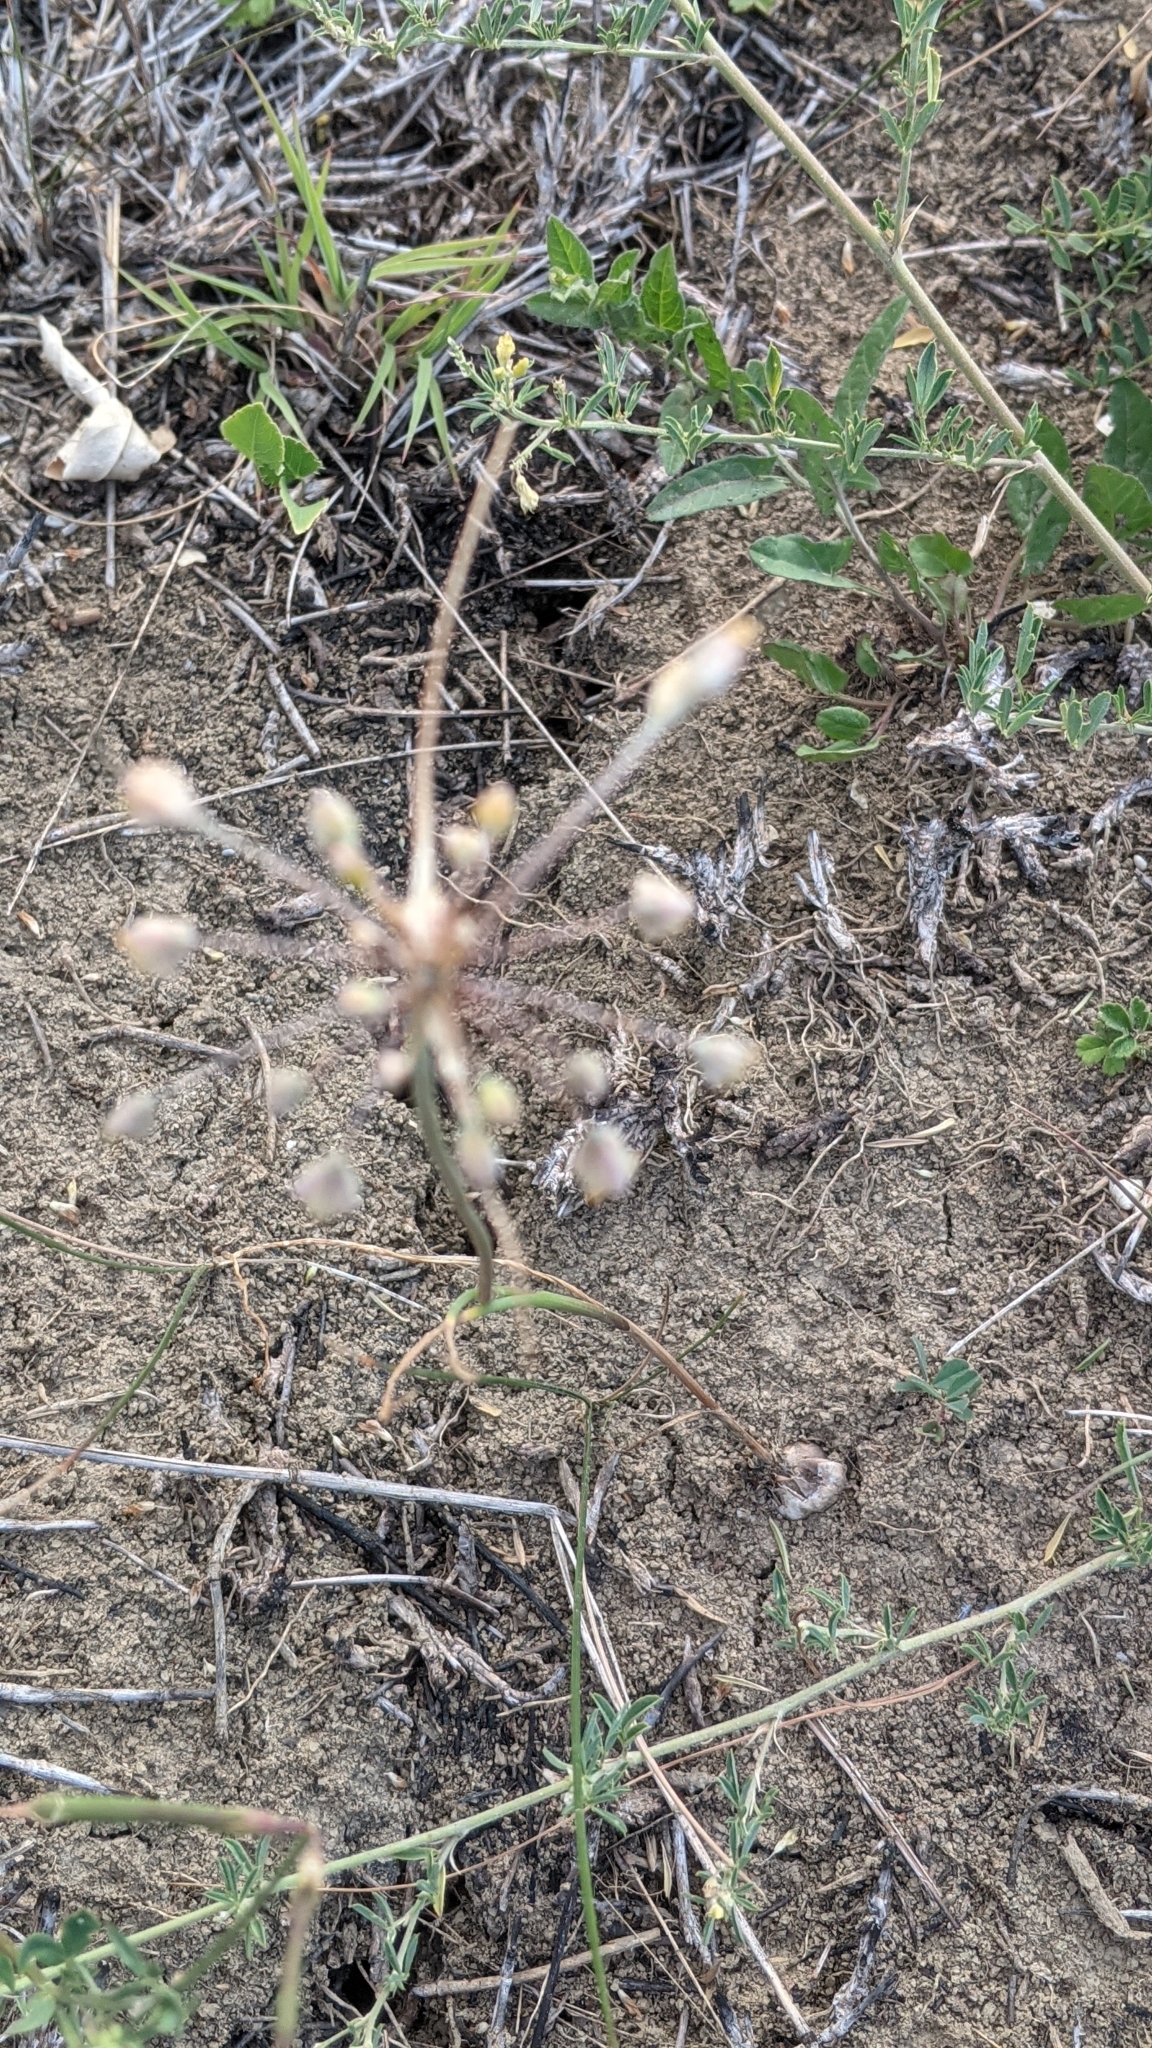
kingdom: Plantae
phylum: Tracheophyta
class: Liliopsida
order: Asparagales
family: Amaryllidaceae
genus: Allium
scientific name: Allium flavum
